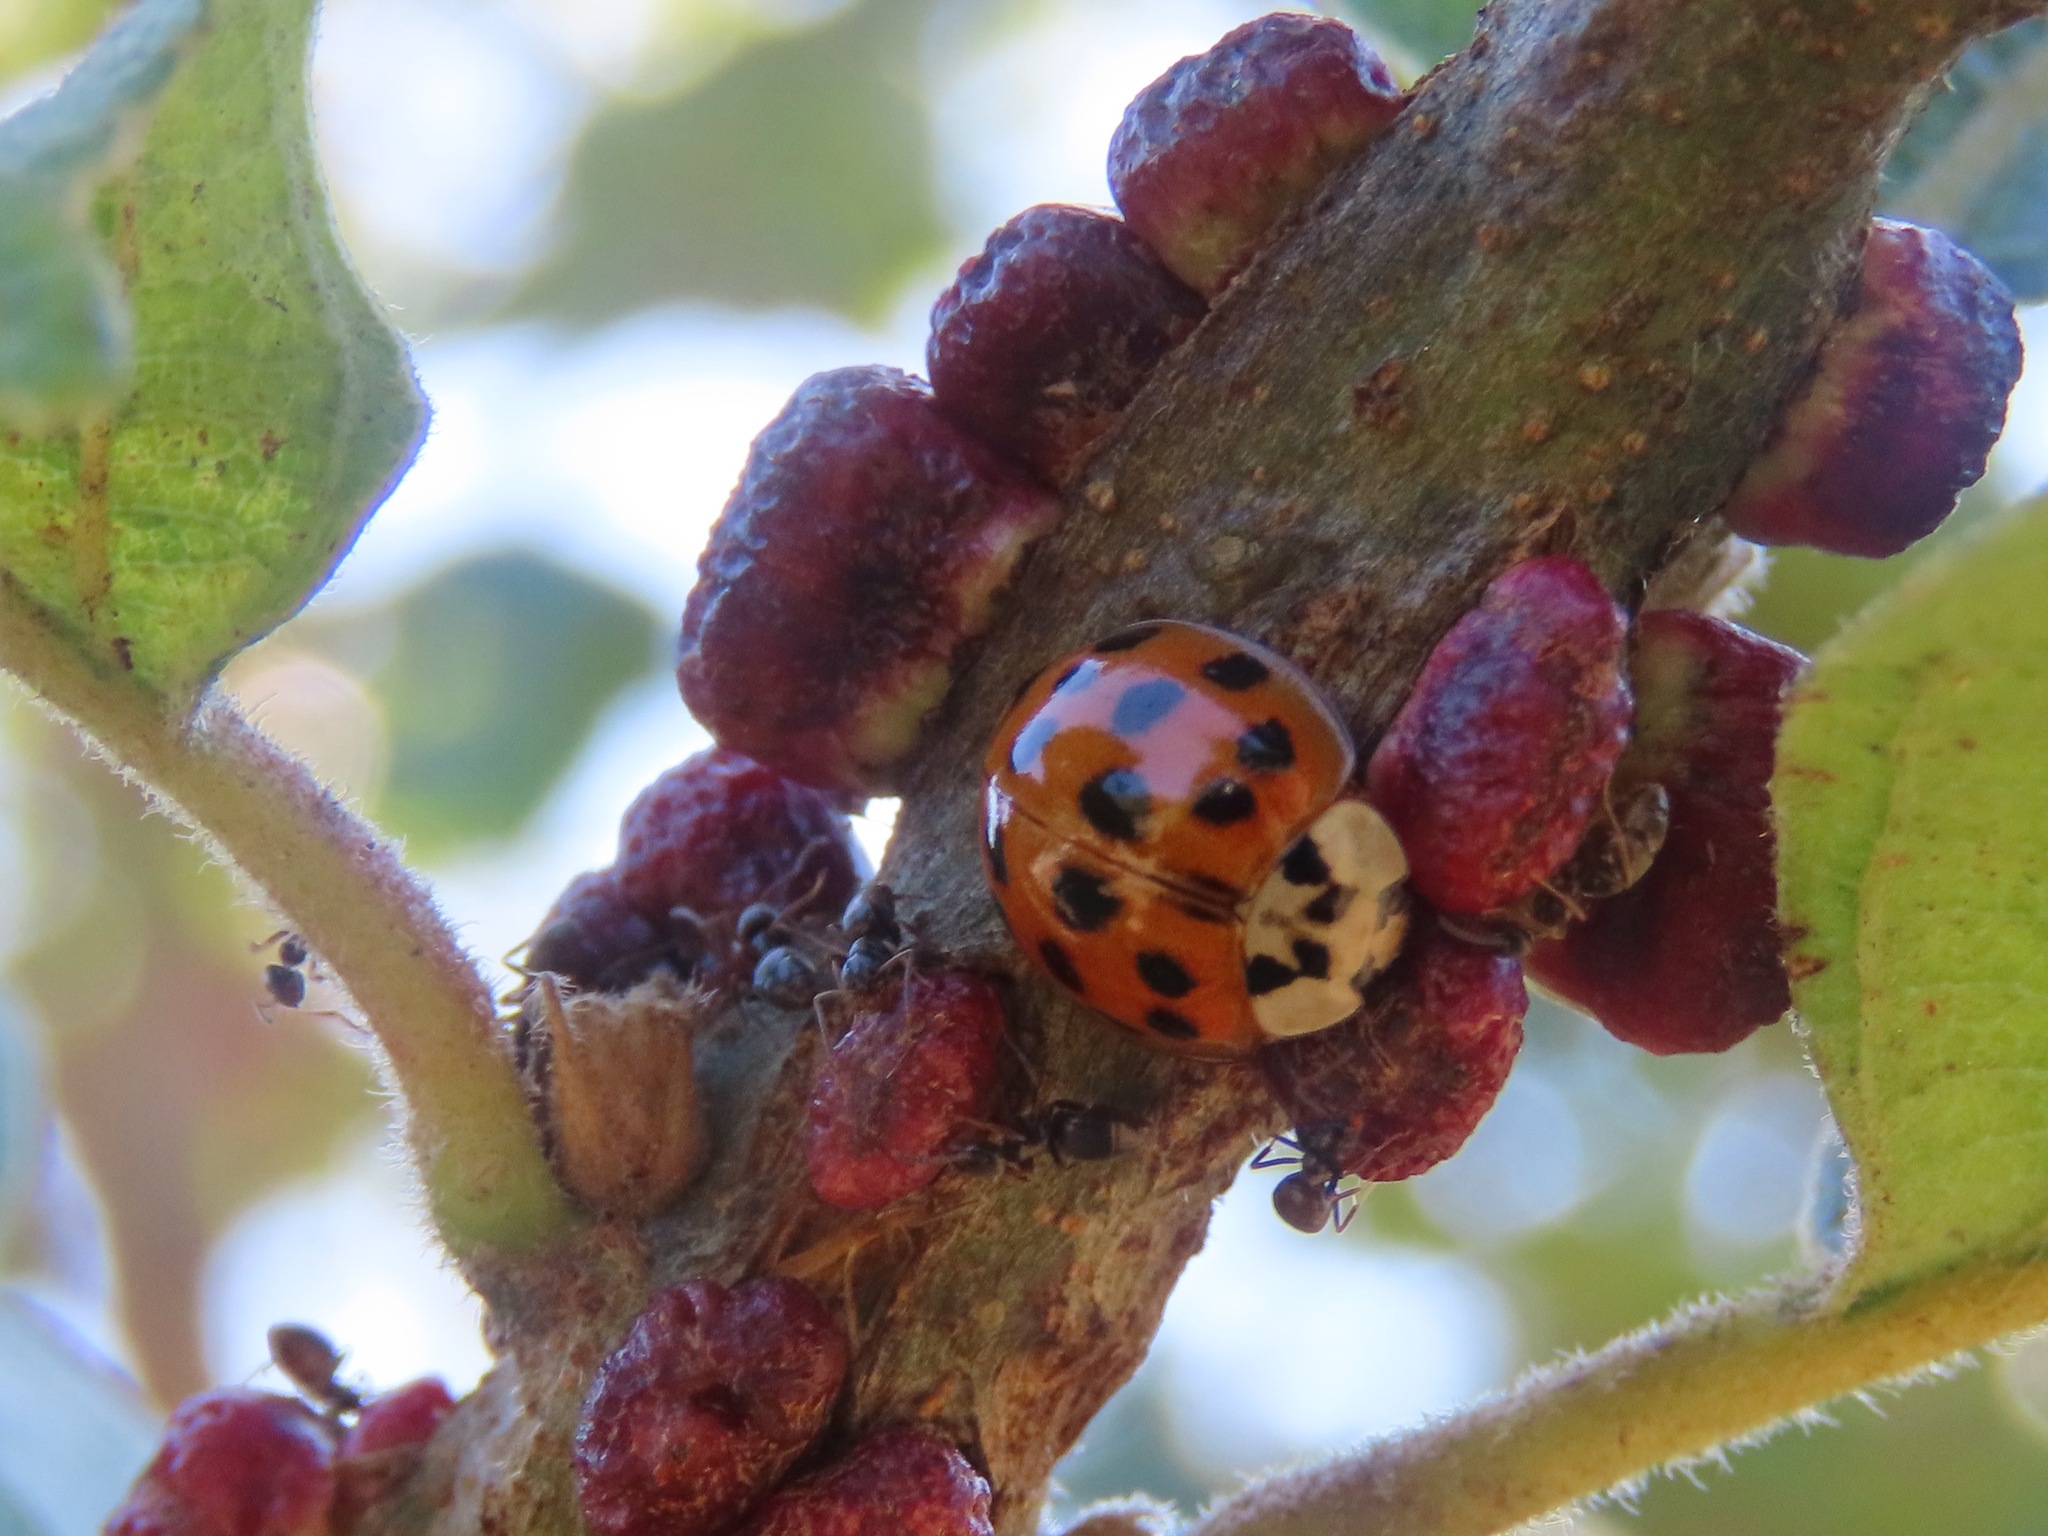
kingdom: Animalia
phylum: Arthropoda
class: Insecta
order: Coleoptera
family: Coccinellidae
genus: Harmonia
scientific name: Harmonia axyridis
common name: Harlequin ladybird
